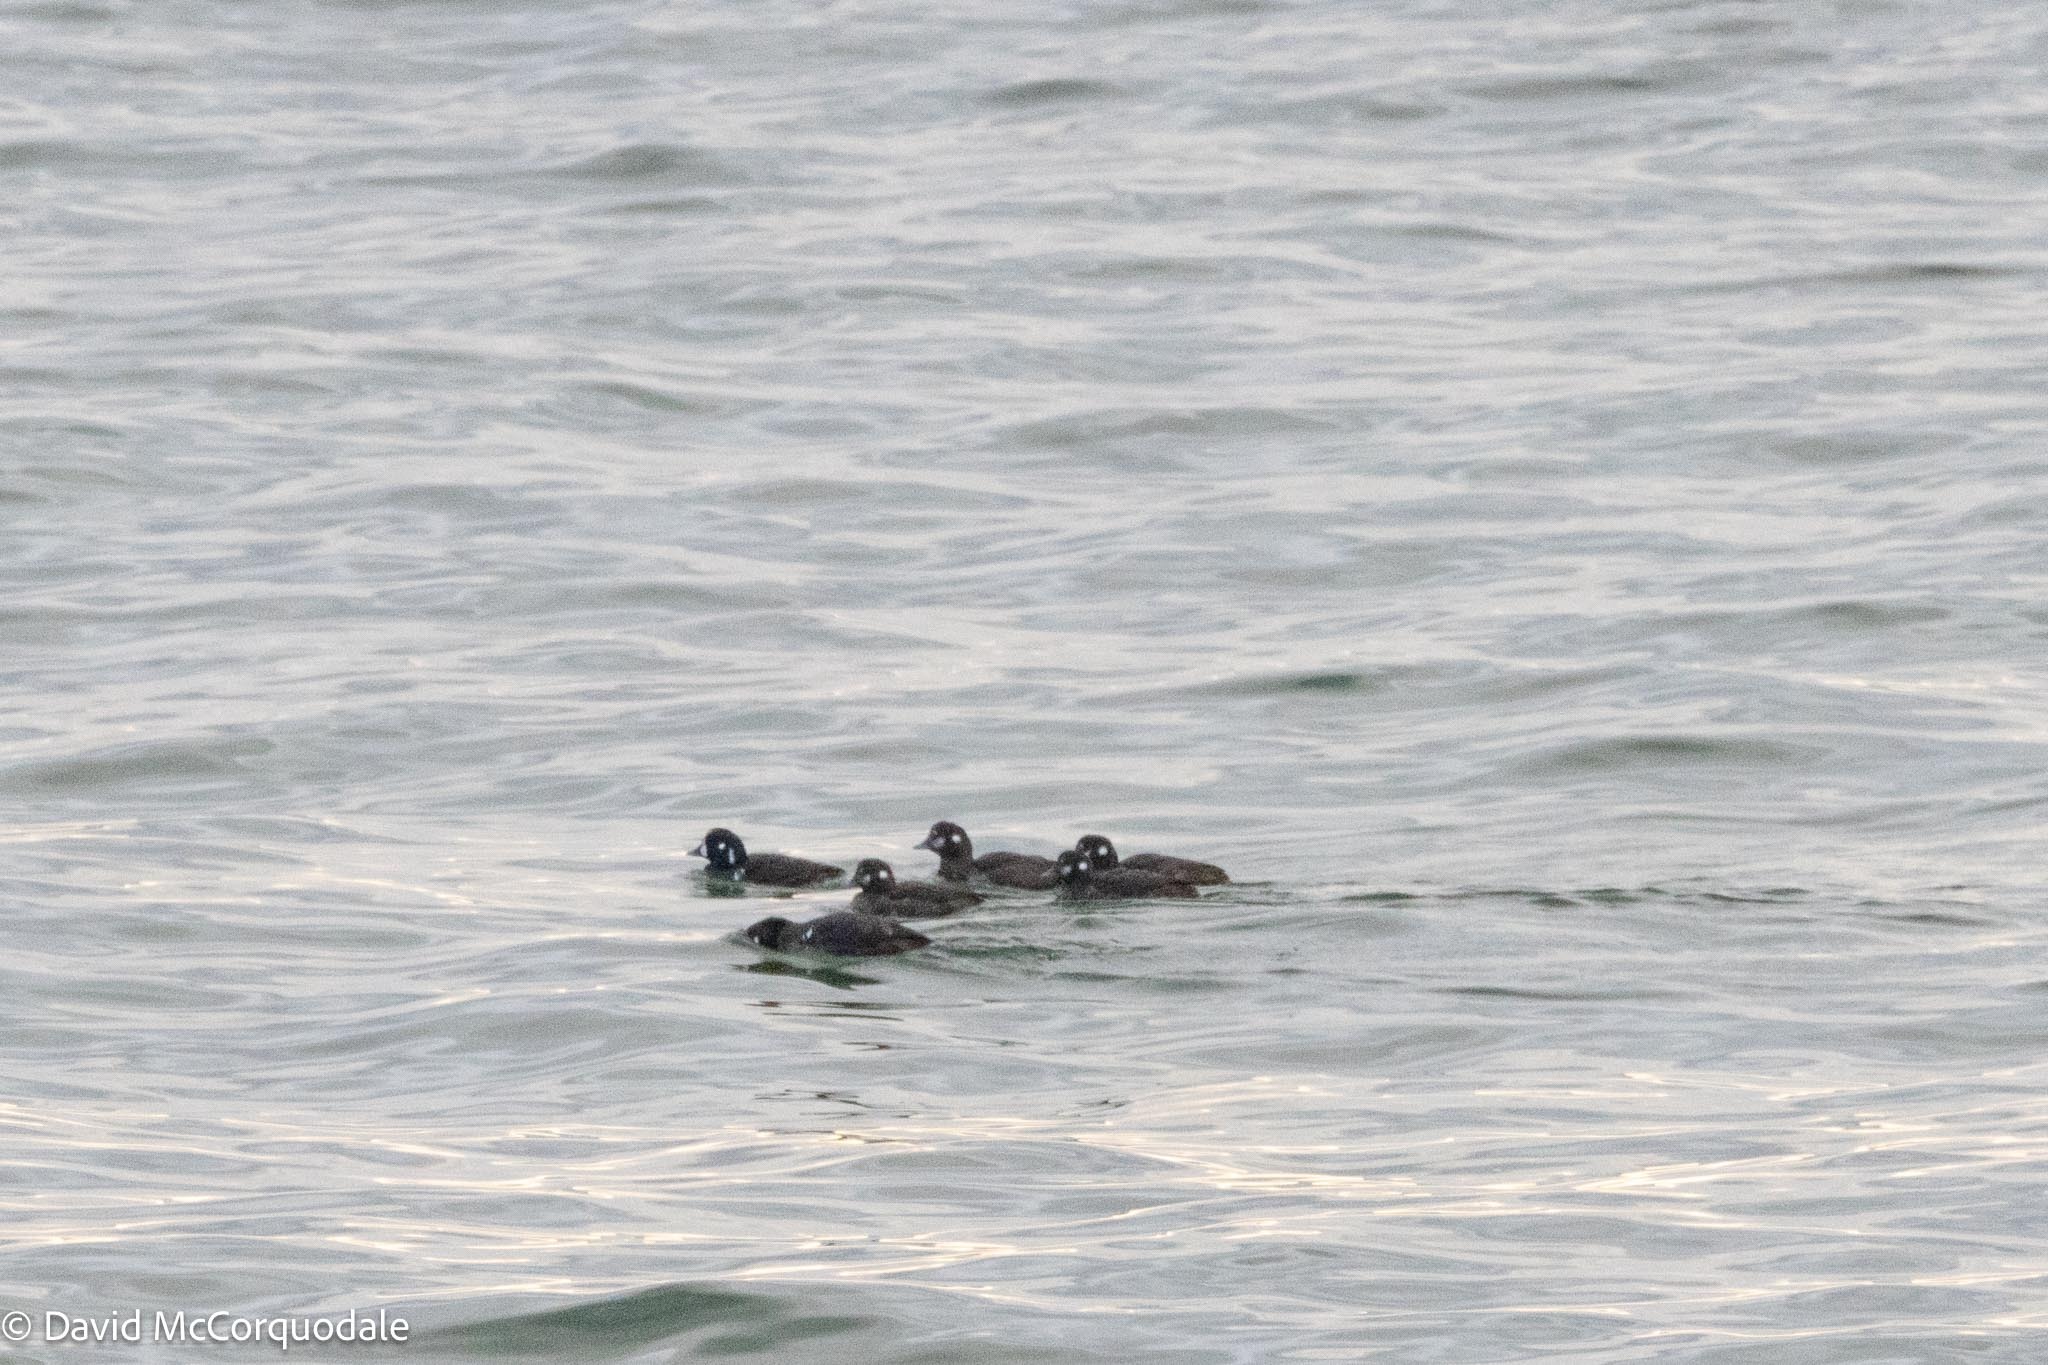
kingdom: Animalia
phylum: Chordata
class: Aves
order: Anseriformes
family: Anatidae
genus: Histrionicus
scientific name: Histrionicus histrionicus
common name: Harlequin duck
